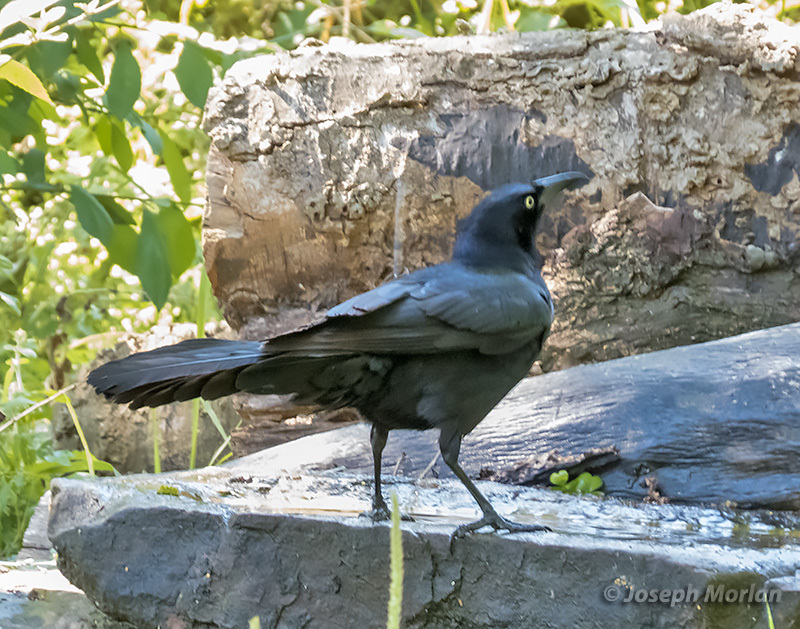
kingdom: Animalia
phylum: Chordata
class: Aves
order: Passeriformes
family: Icteridae
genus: Quiscalus
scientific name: Quiscalus mexicanus
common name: Great-tailed grackle
